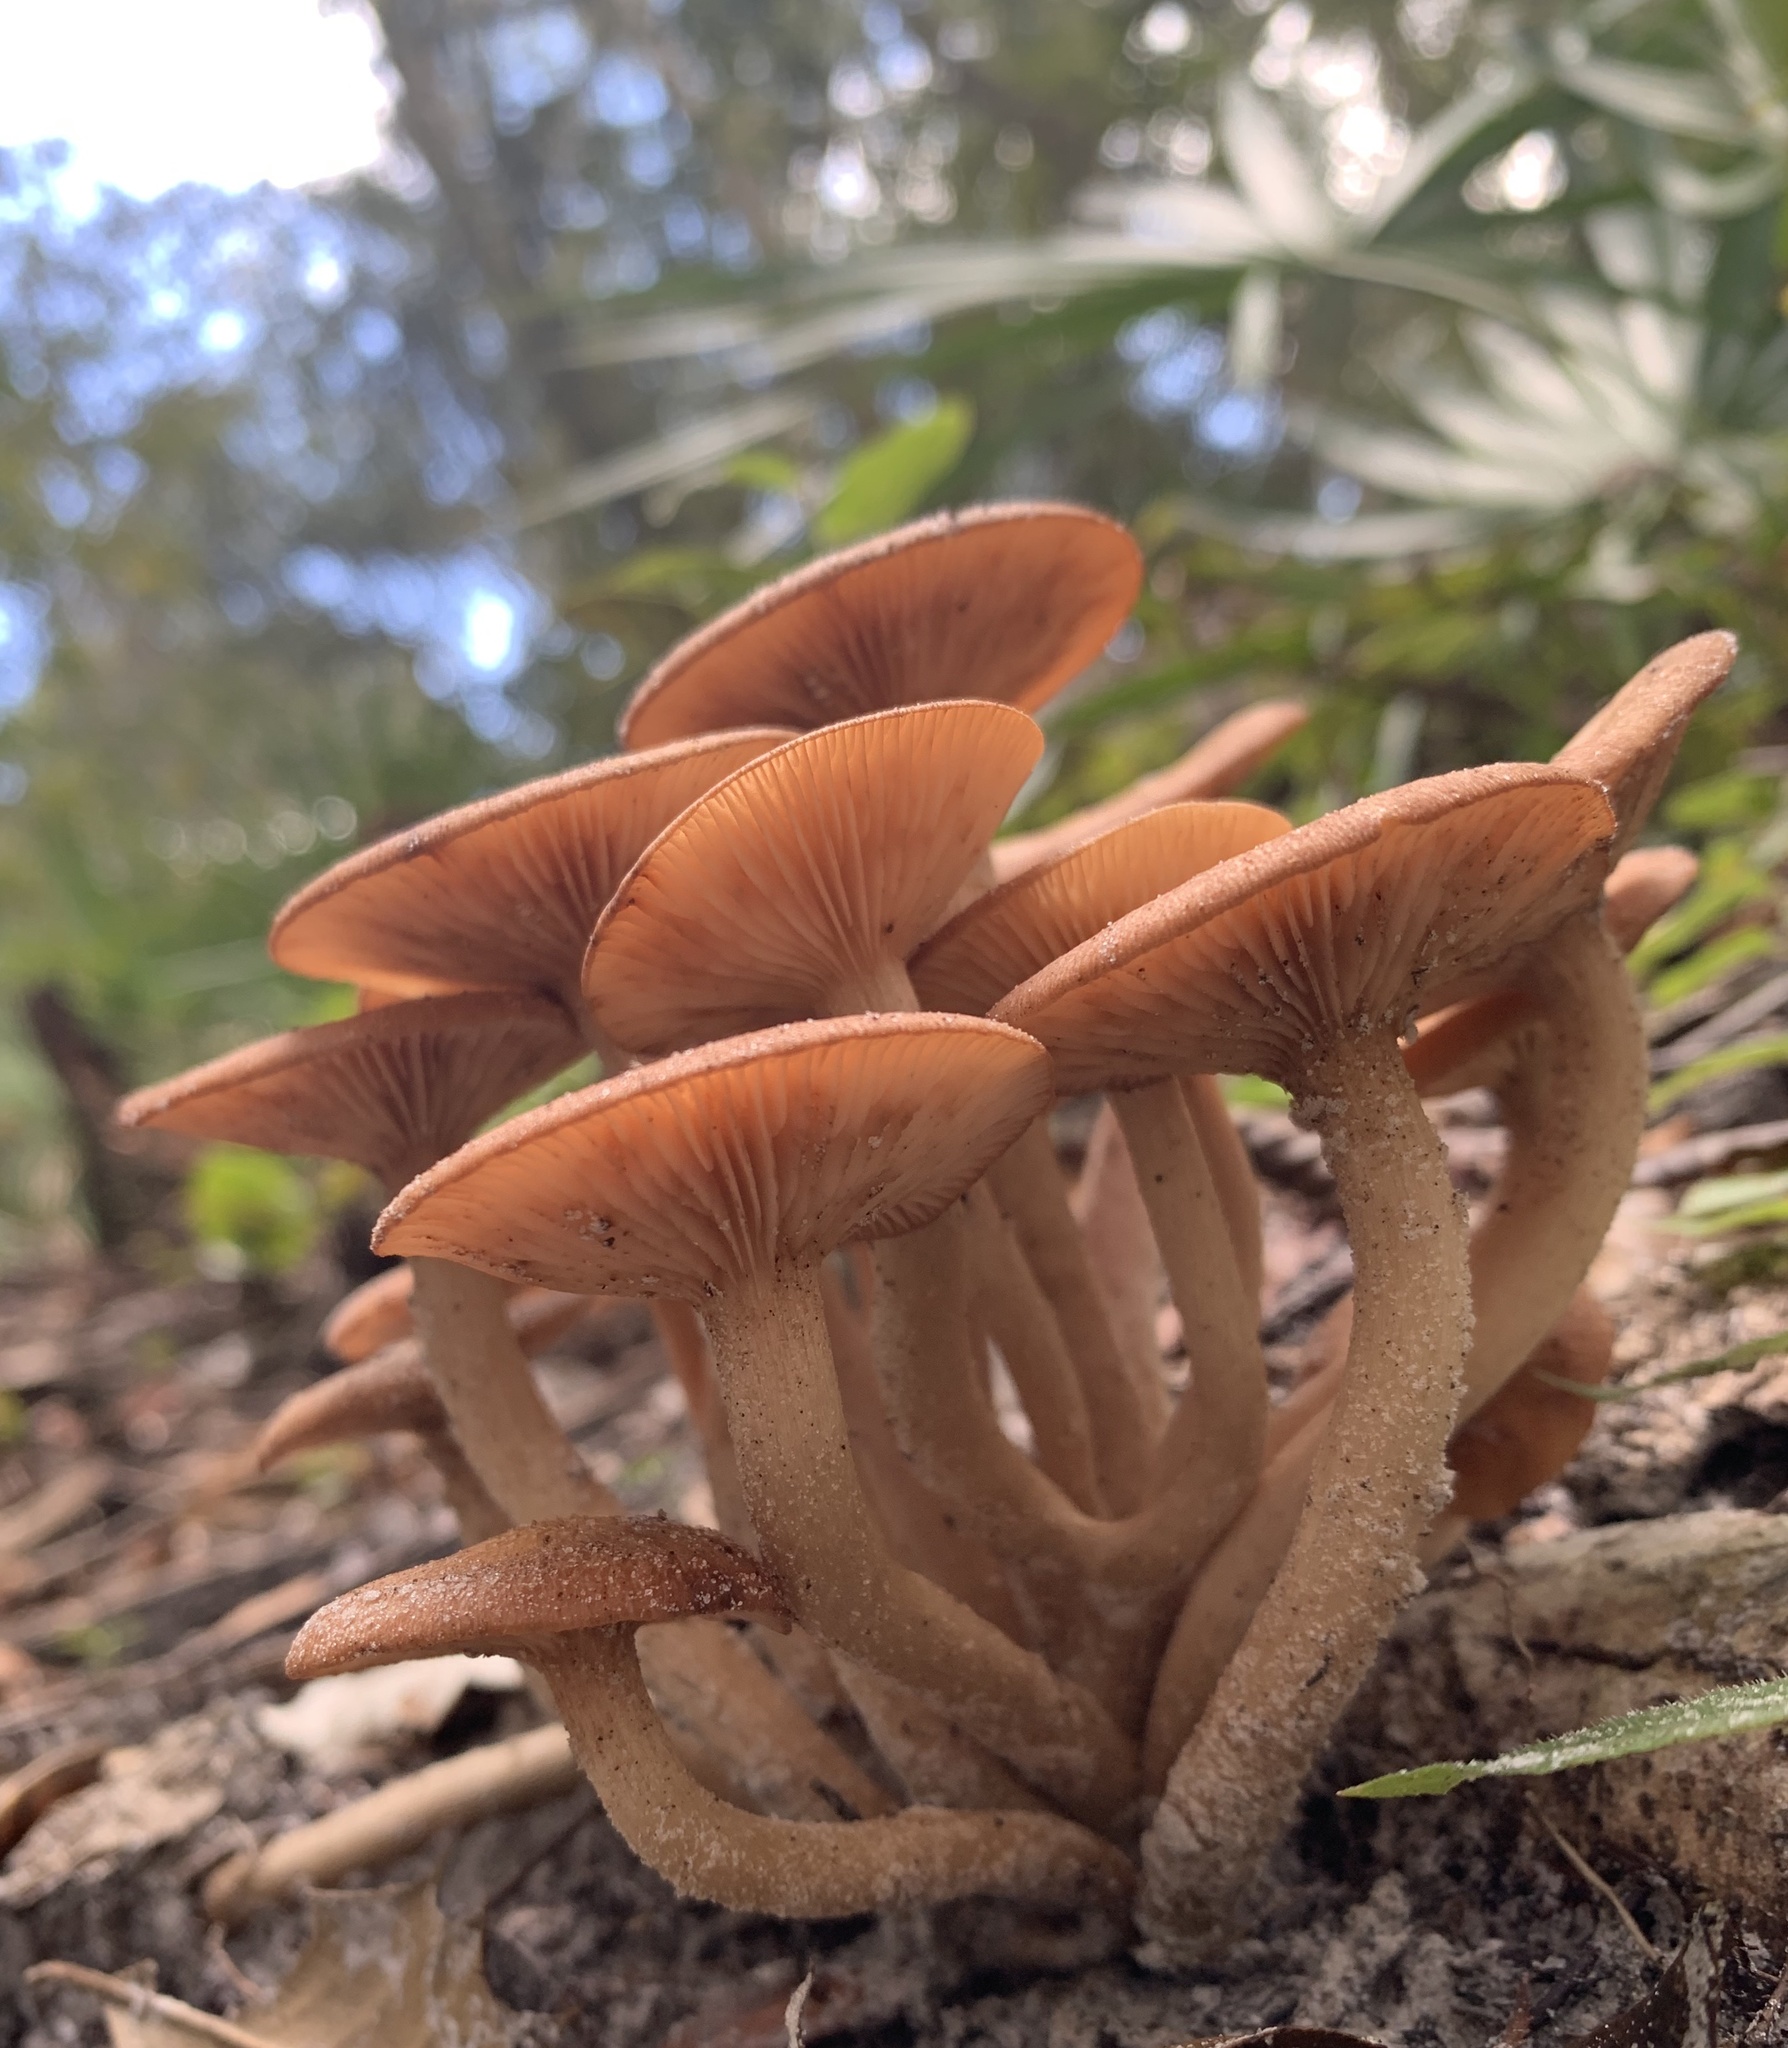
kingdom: Fungi
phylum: Basidiomycota
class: Agaricomycetes
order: Agaricales
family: Physalacriaceae
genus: Desarmillaria
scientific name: Desarmillaria caespitosa
